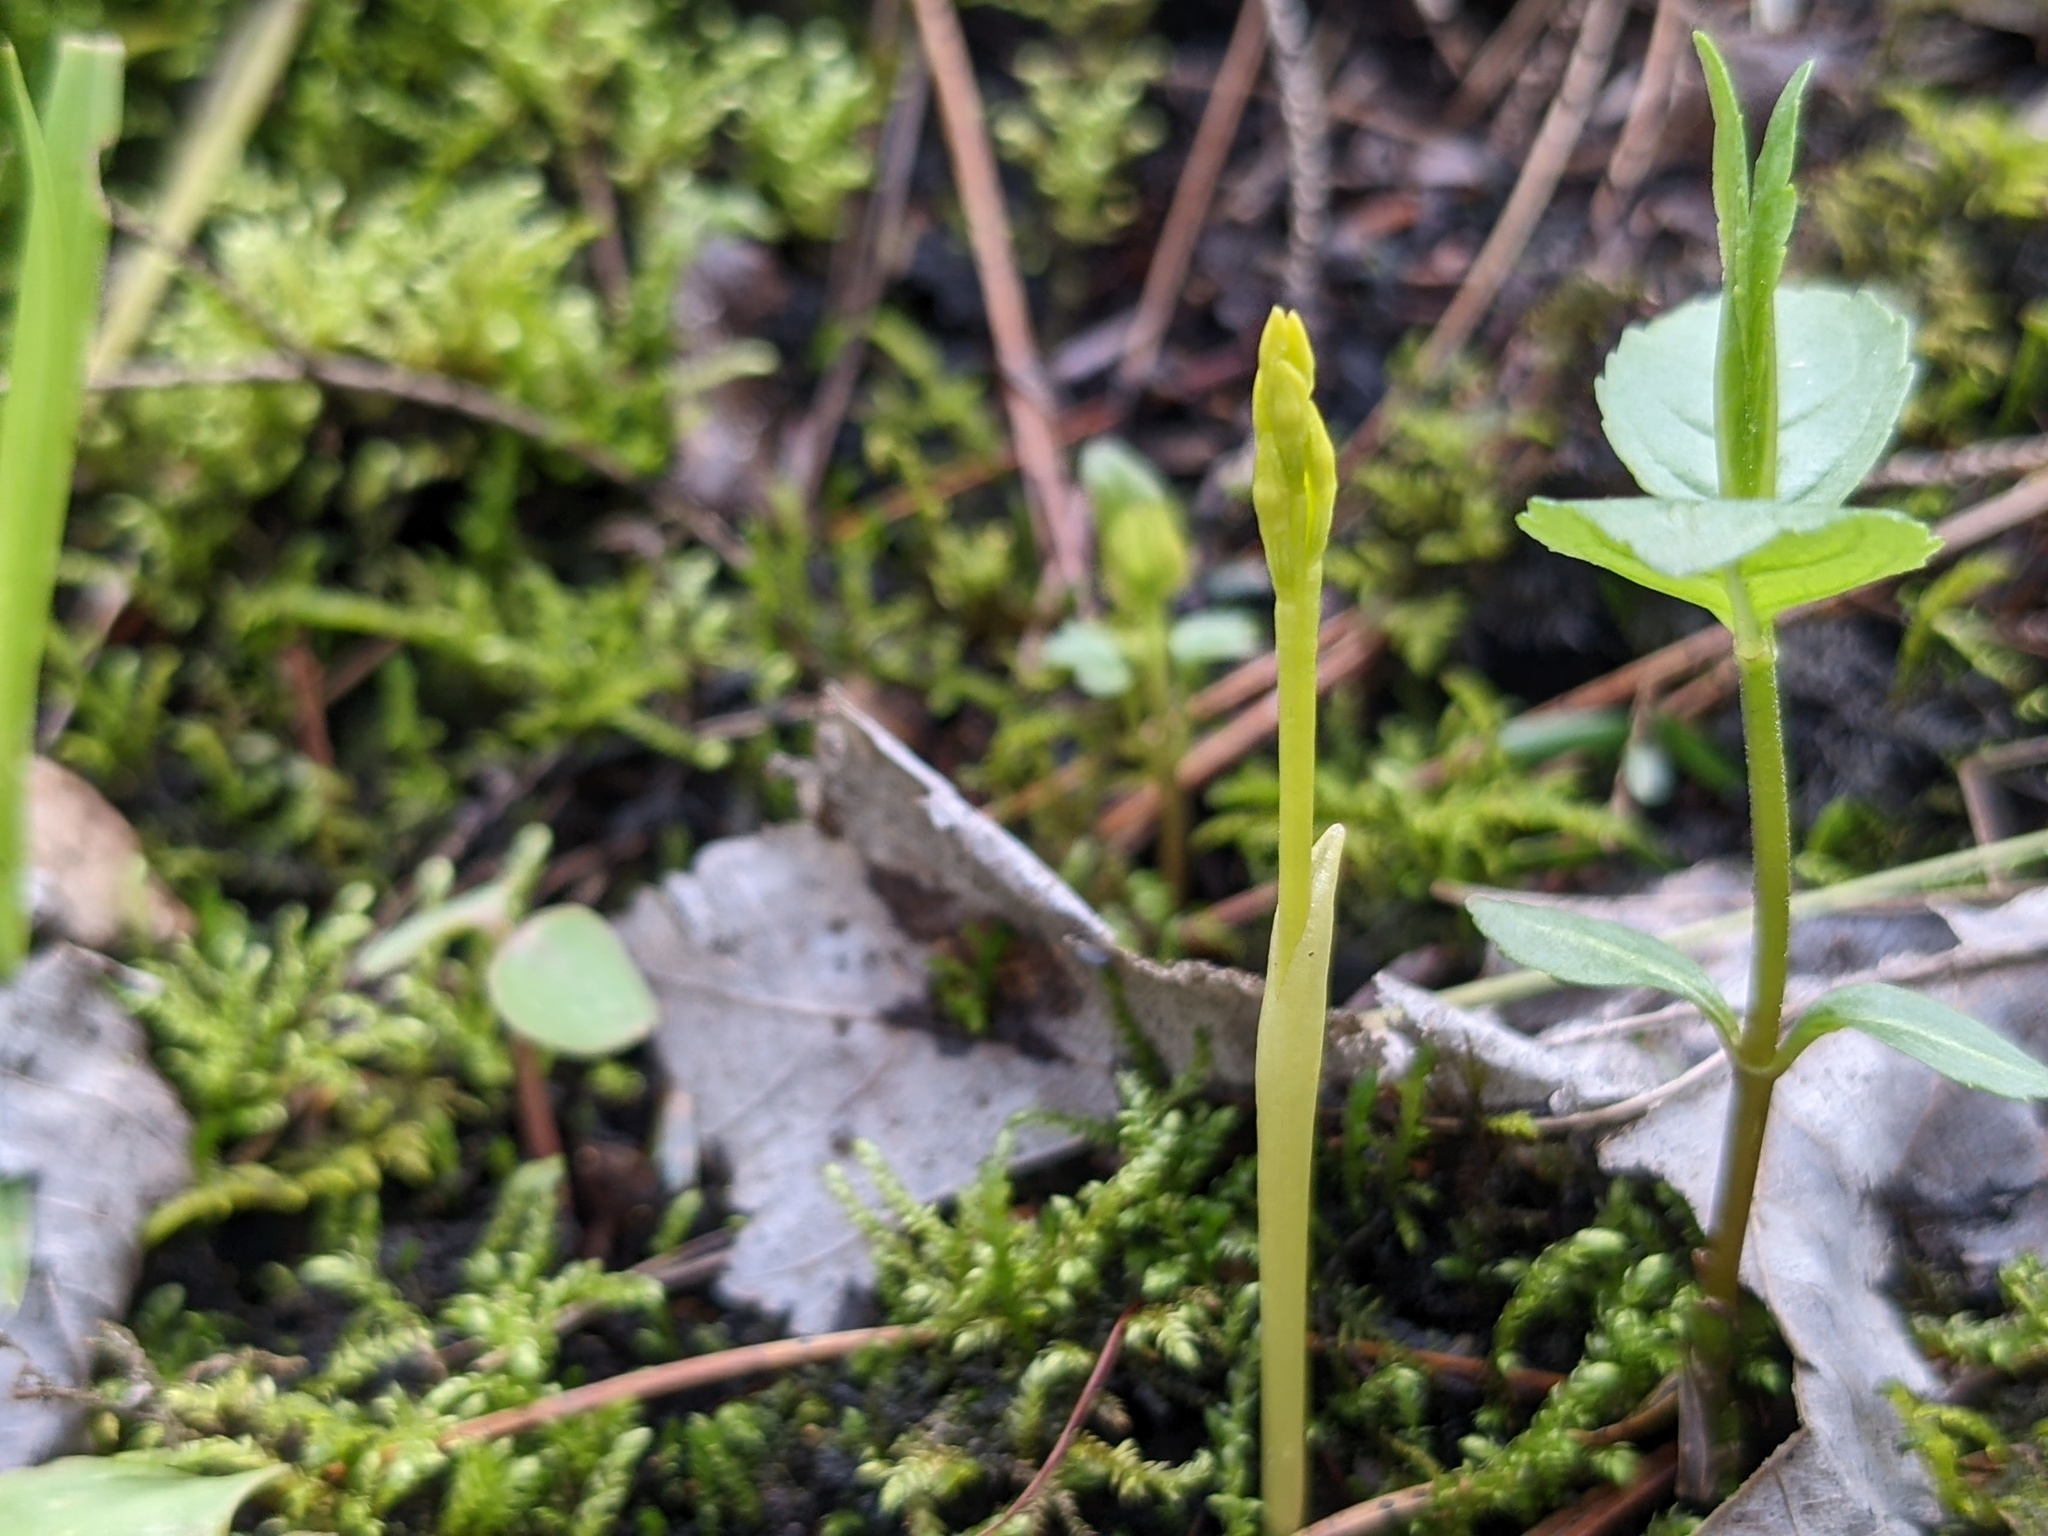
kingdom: Plantae
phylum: Tracheophyta
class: Liliopsida
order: Asparagales
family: Orchidaceae
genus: Corallorhiza
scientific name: Corallorhiza trifida
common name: Yellow coralroot
